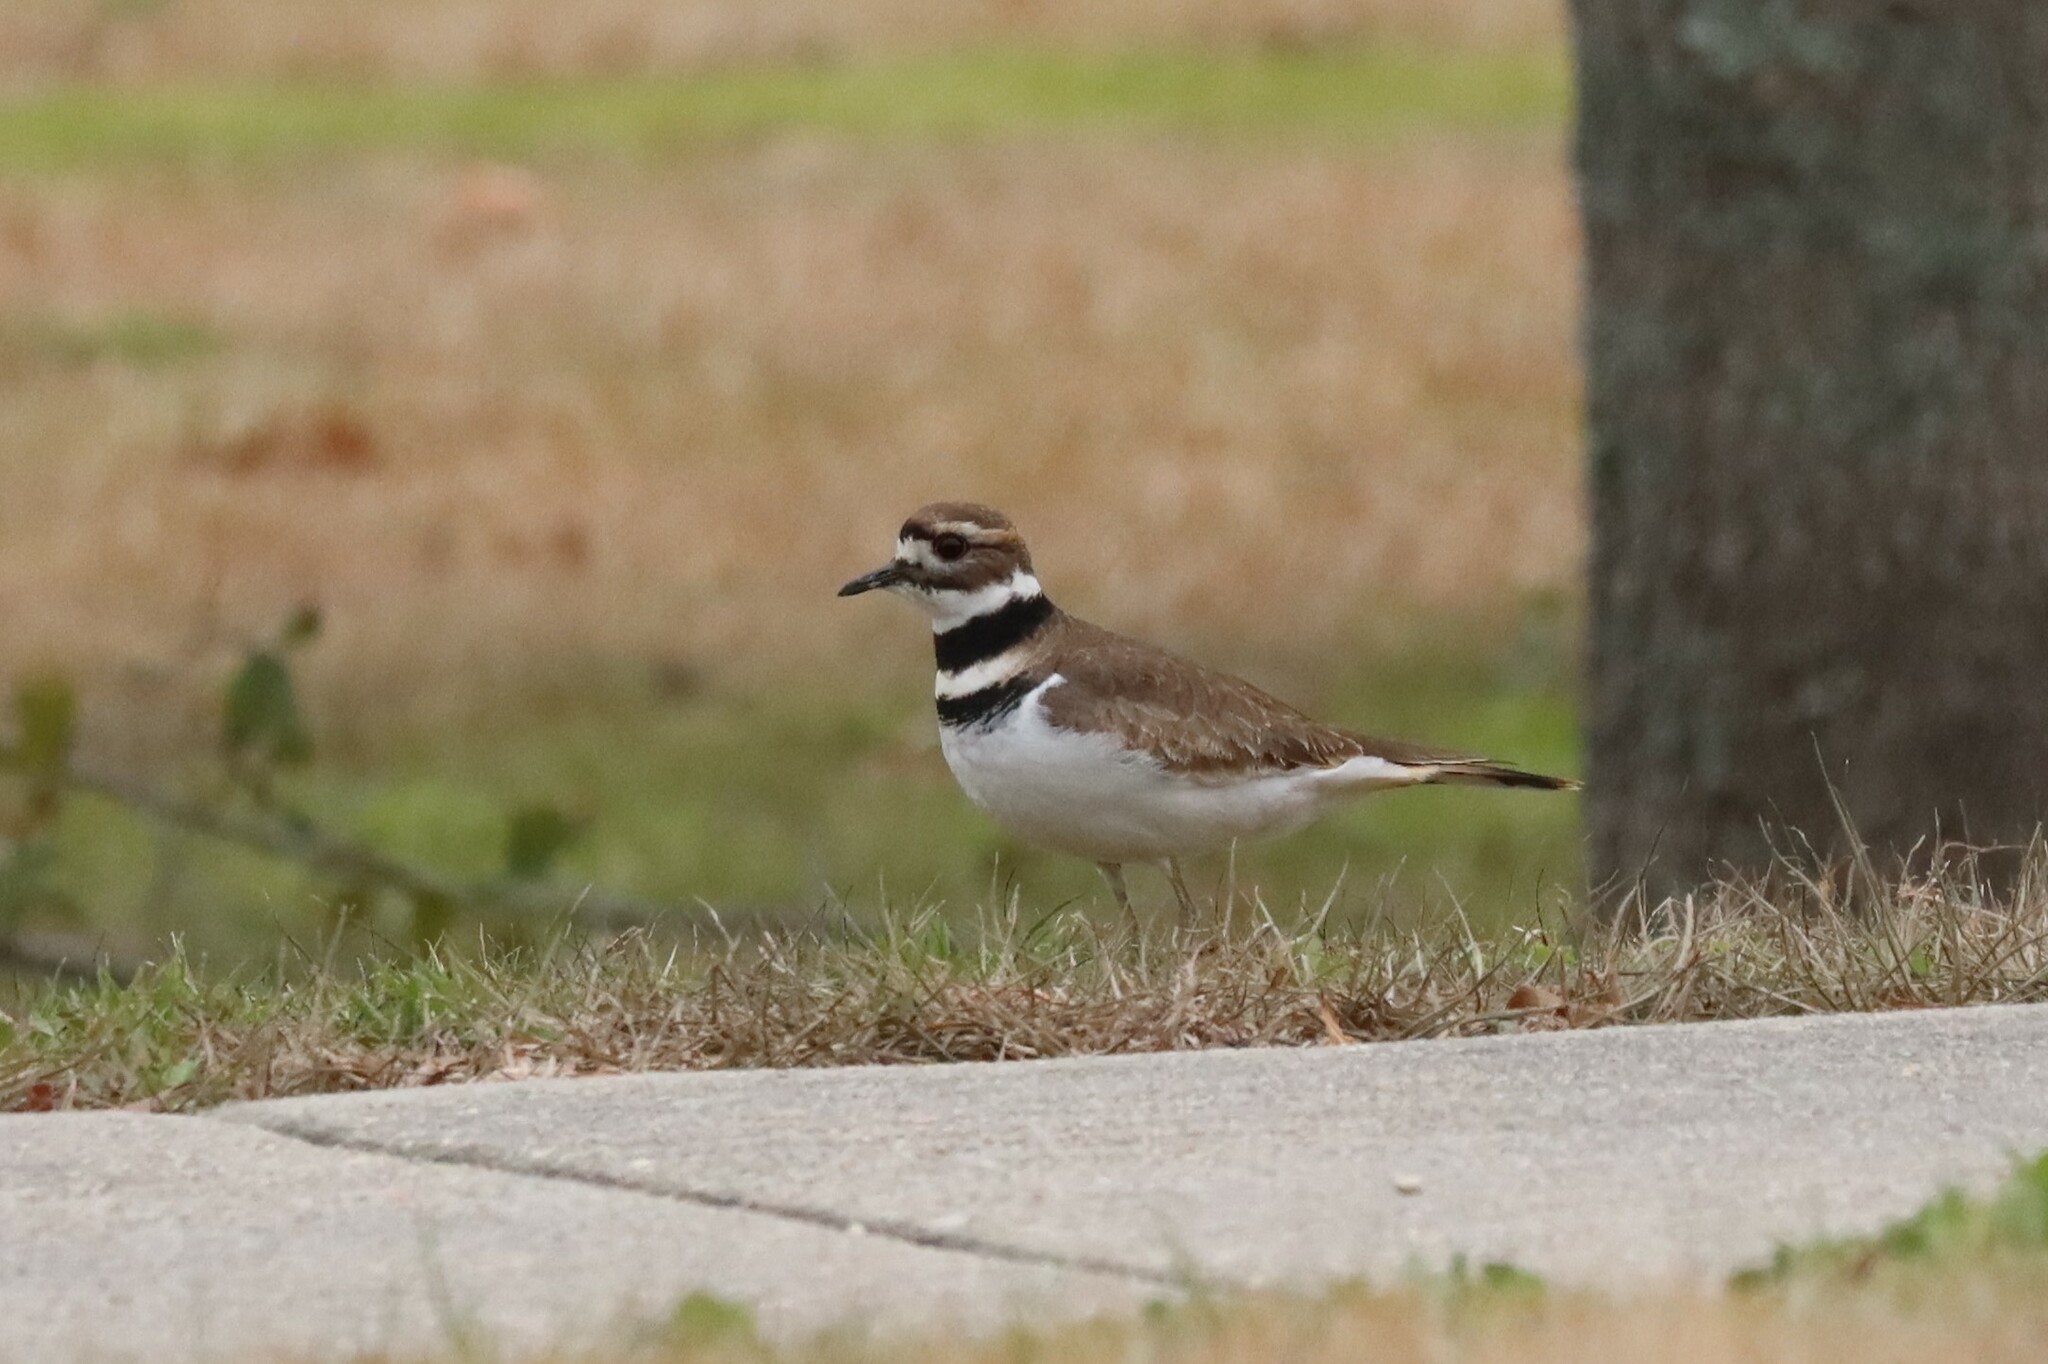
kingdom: Animalia
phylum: Chordata
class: Aves
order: Charadriiformes
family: Charadriidae
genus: Charadrius
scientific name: Charadrius vociferus
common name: Killdeer
